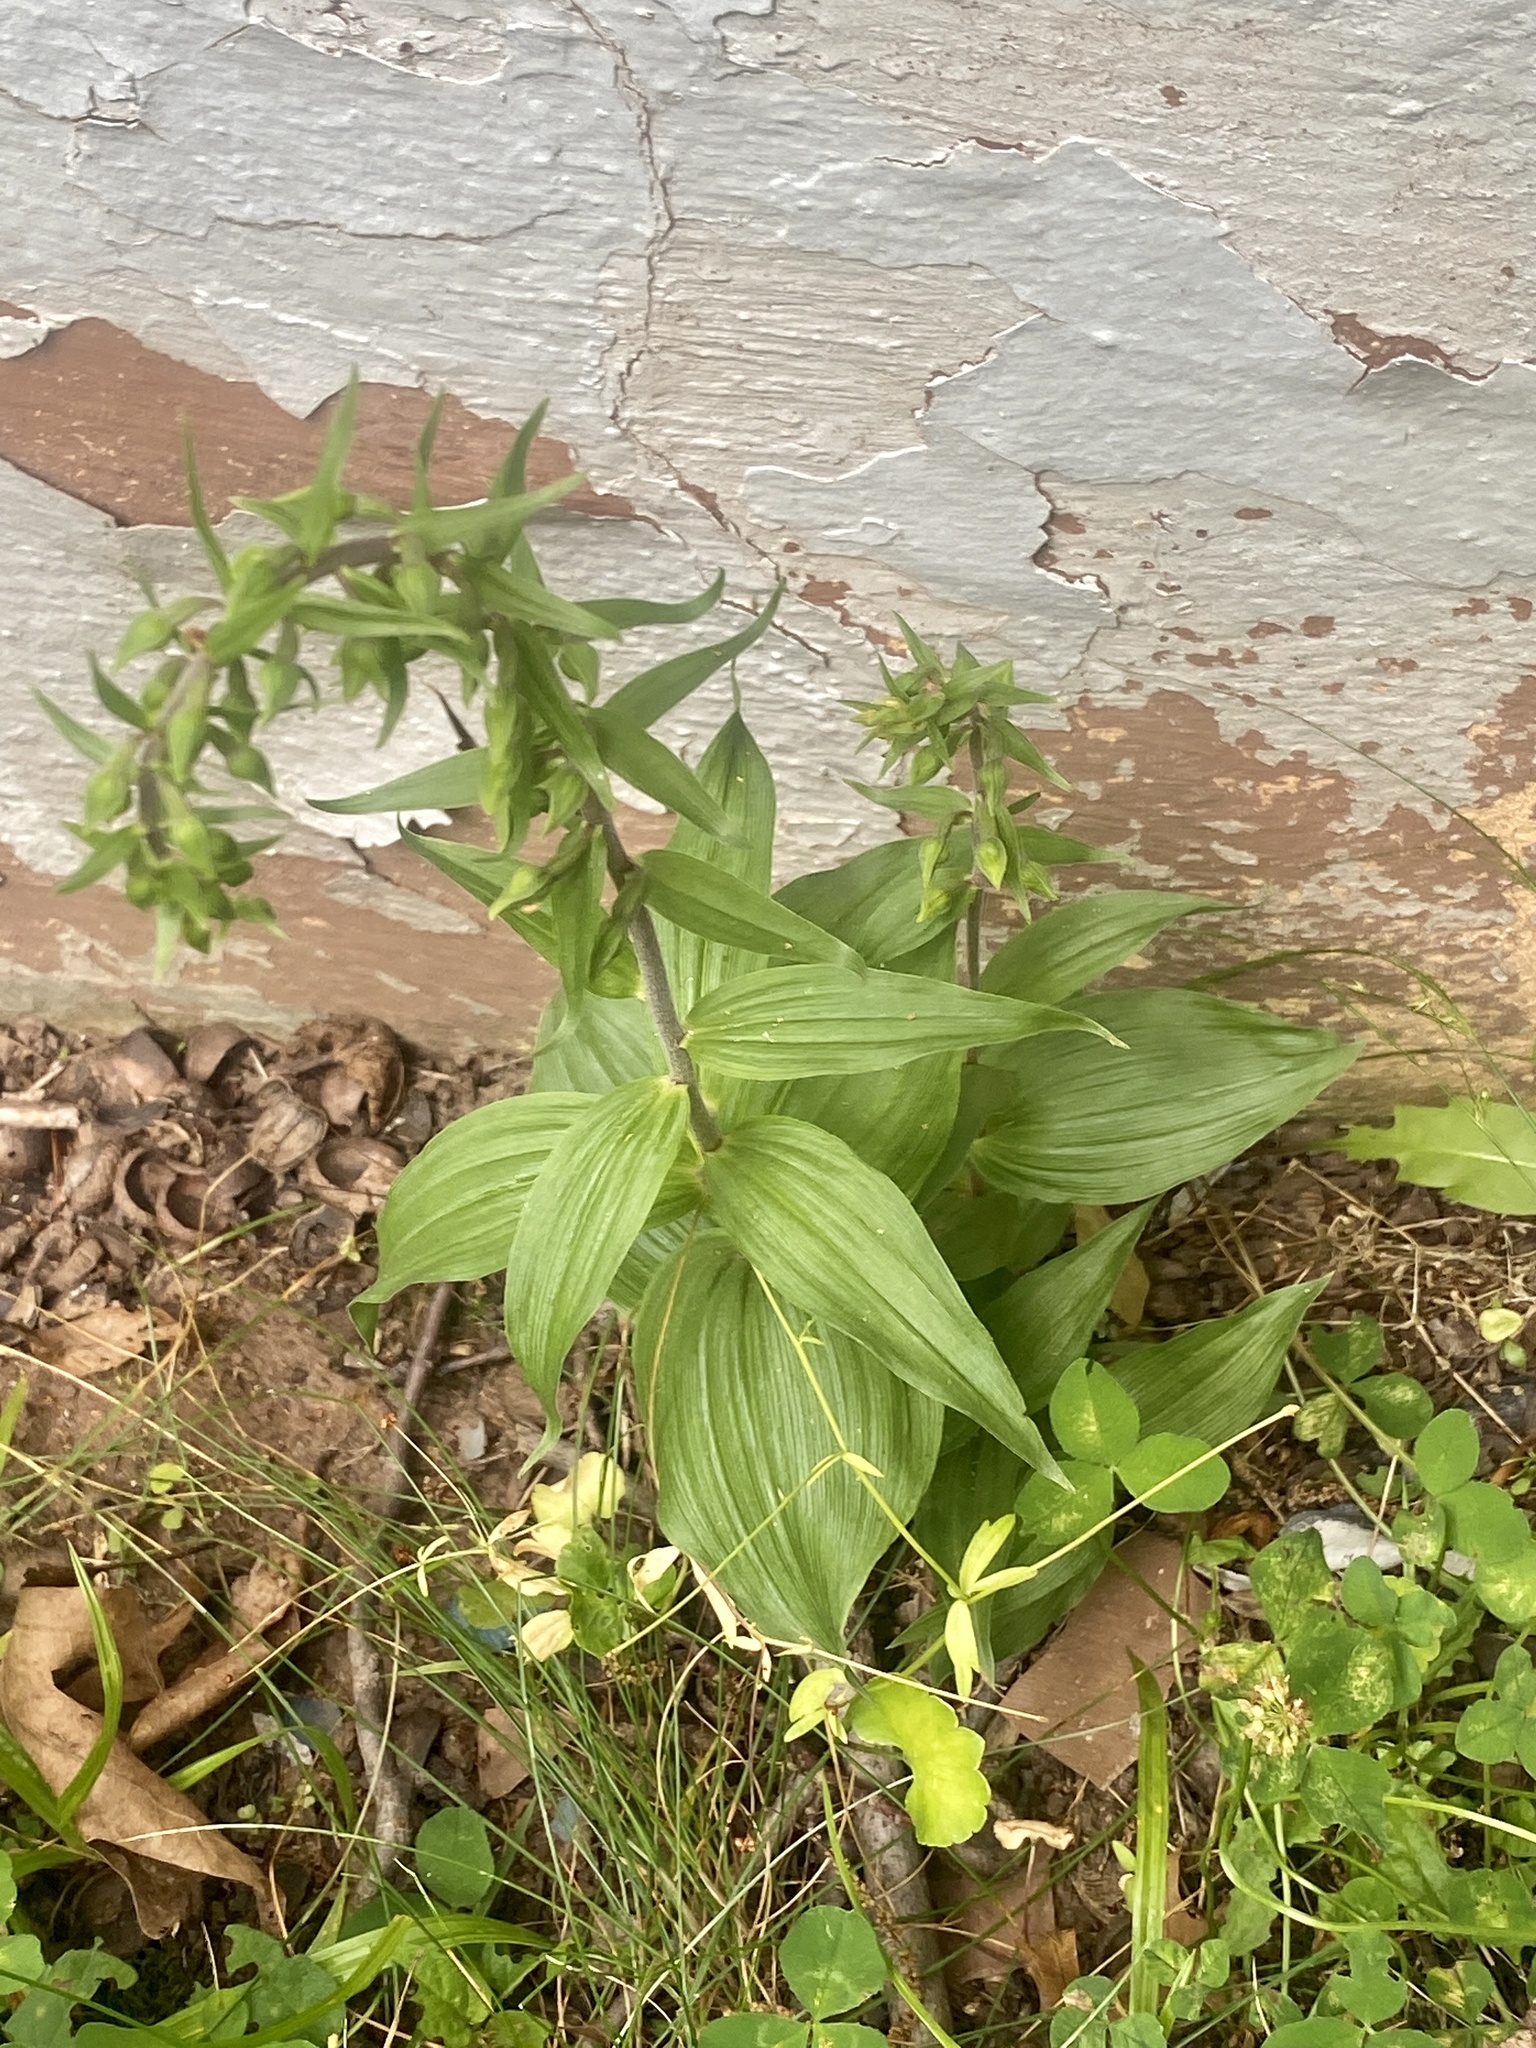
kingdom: Plantae
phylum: Tracheophyta
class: Liliopsida
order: Asparagales
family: Orchidaceae
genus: Epipactis
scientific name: Epipactis helleborine
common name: Broad-leaved helleborine
